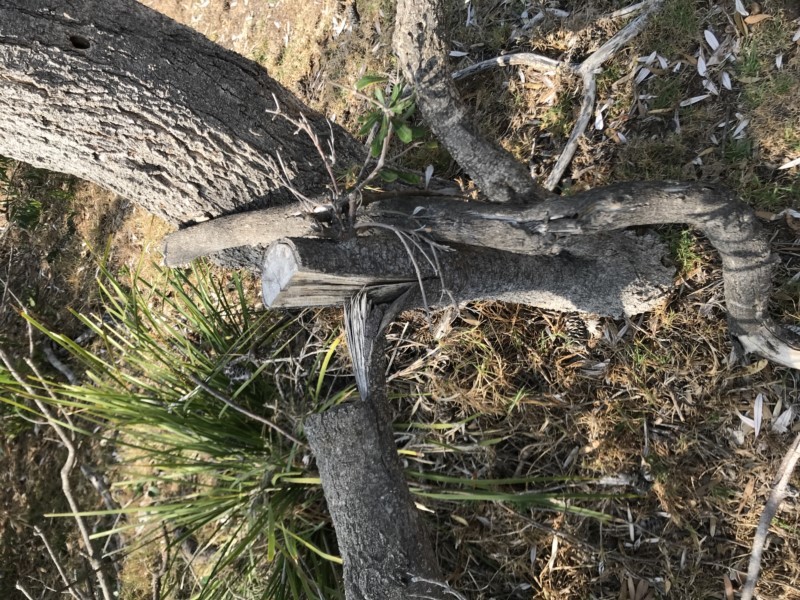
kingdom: Plantae
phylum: Tracheophyta
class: Magnoliopsida
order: Proteales
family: Proteaceae
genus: Banksia
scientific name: Banksia integrifolia
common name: White-honeysuckle
